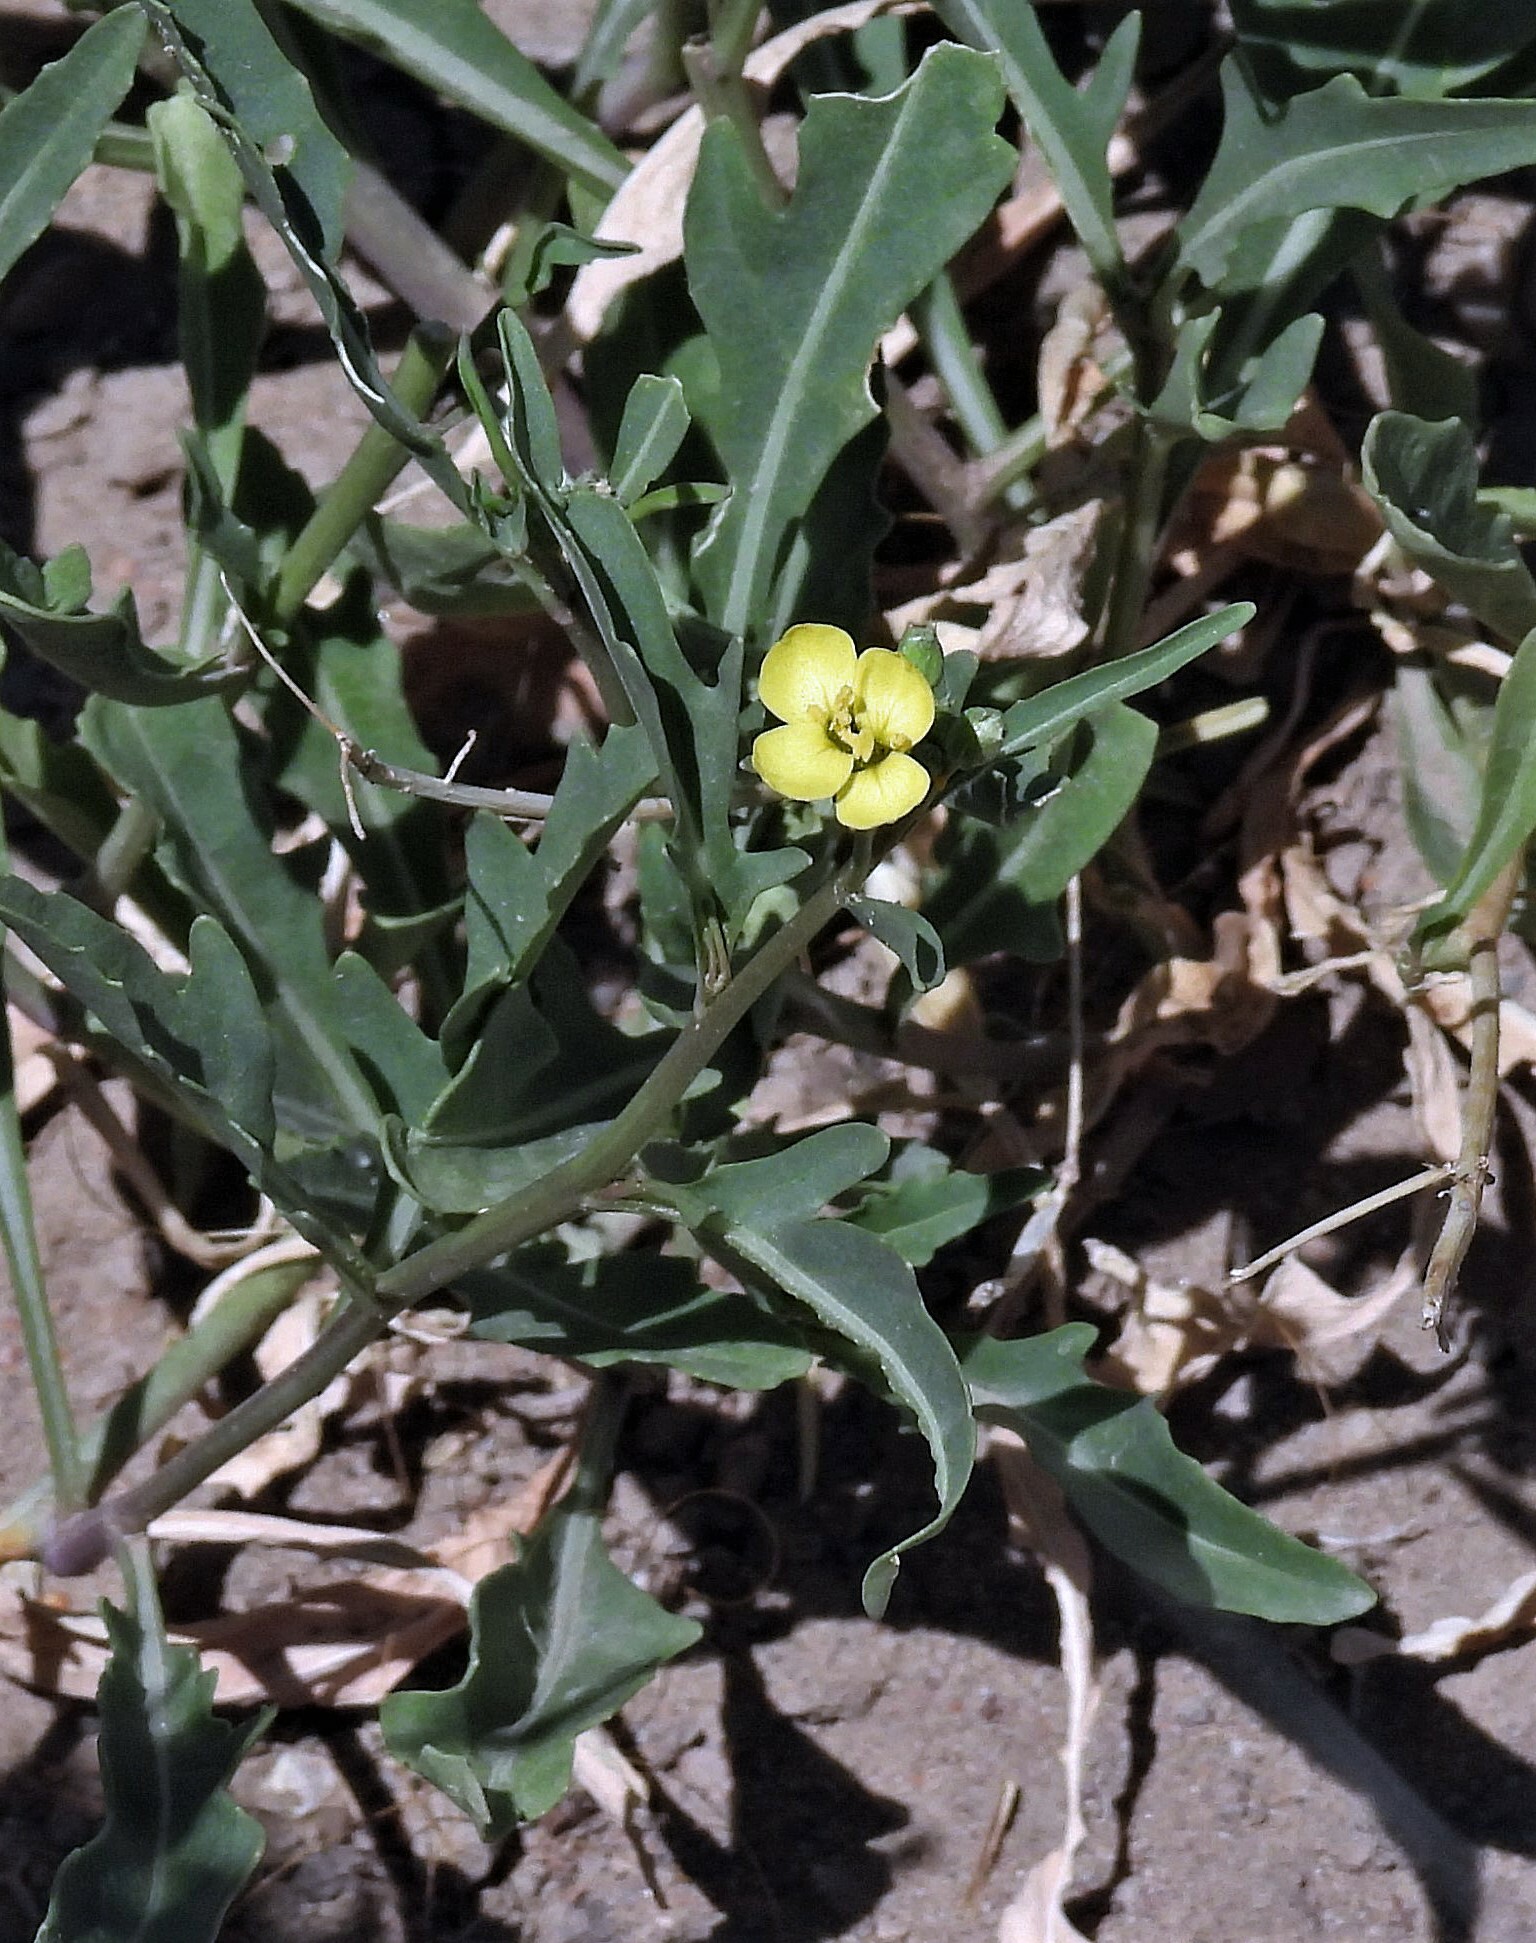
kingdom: Plantae
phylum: Tracheophyta
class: Magnoliopsida
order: Brassicales
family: Brassicaceae
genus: Diplotaxis
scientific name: Diplotaxis tenuifolia
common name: Perennial wall-rocket
